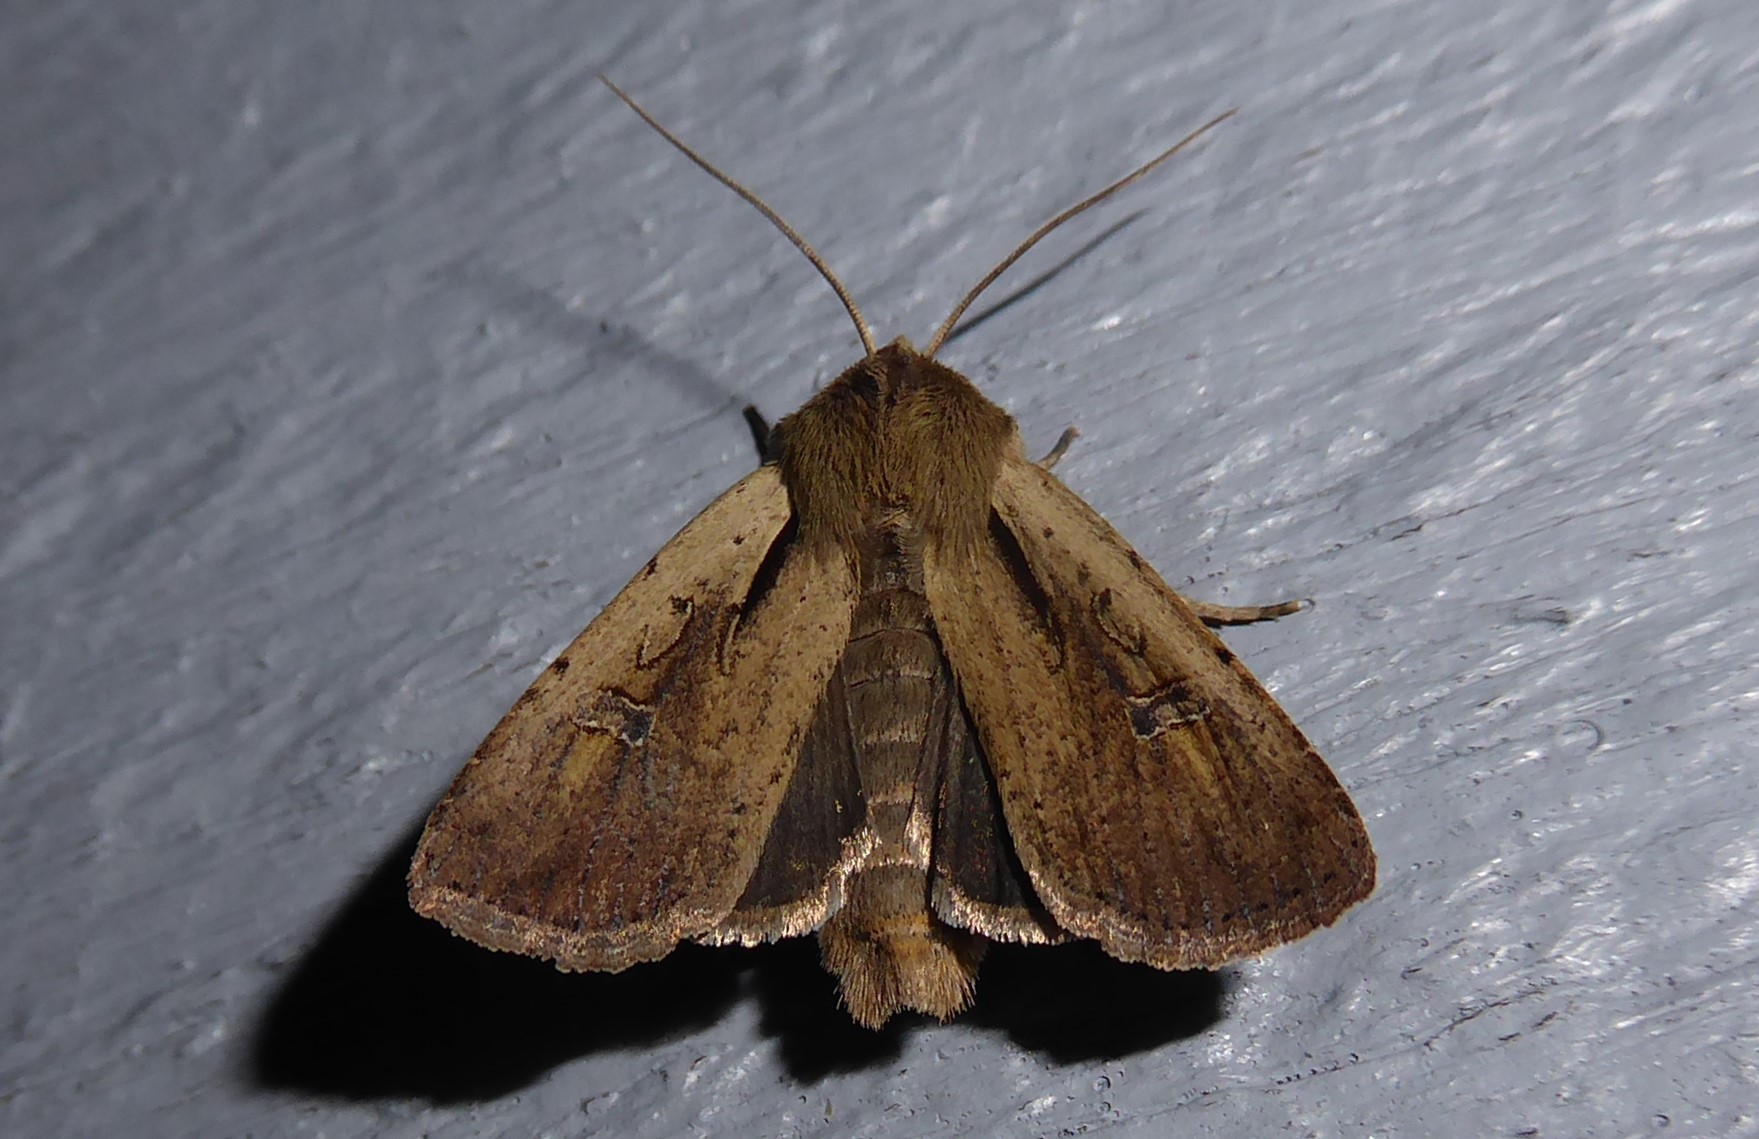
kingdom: Animalia
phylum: Arthropoda
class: Insecta
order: Lepidoptera
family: Noctuidae
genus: Ichneutica
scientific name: Ichneutica atristriga
